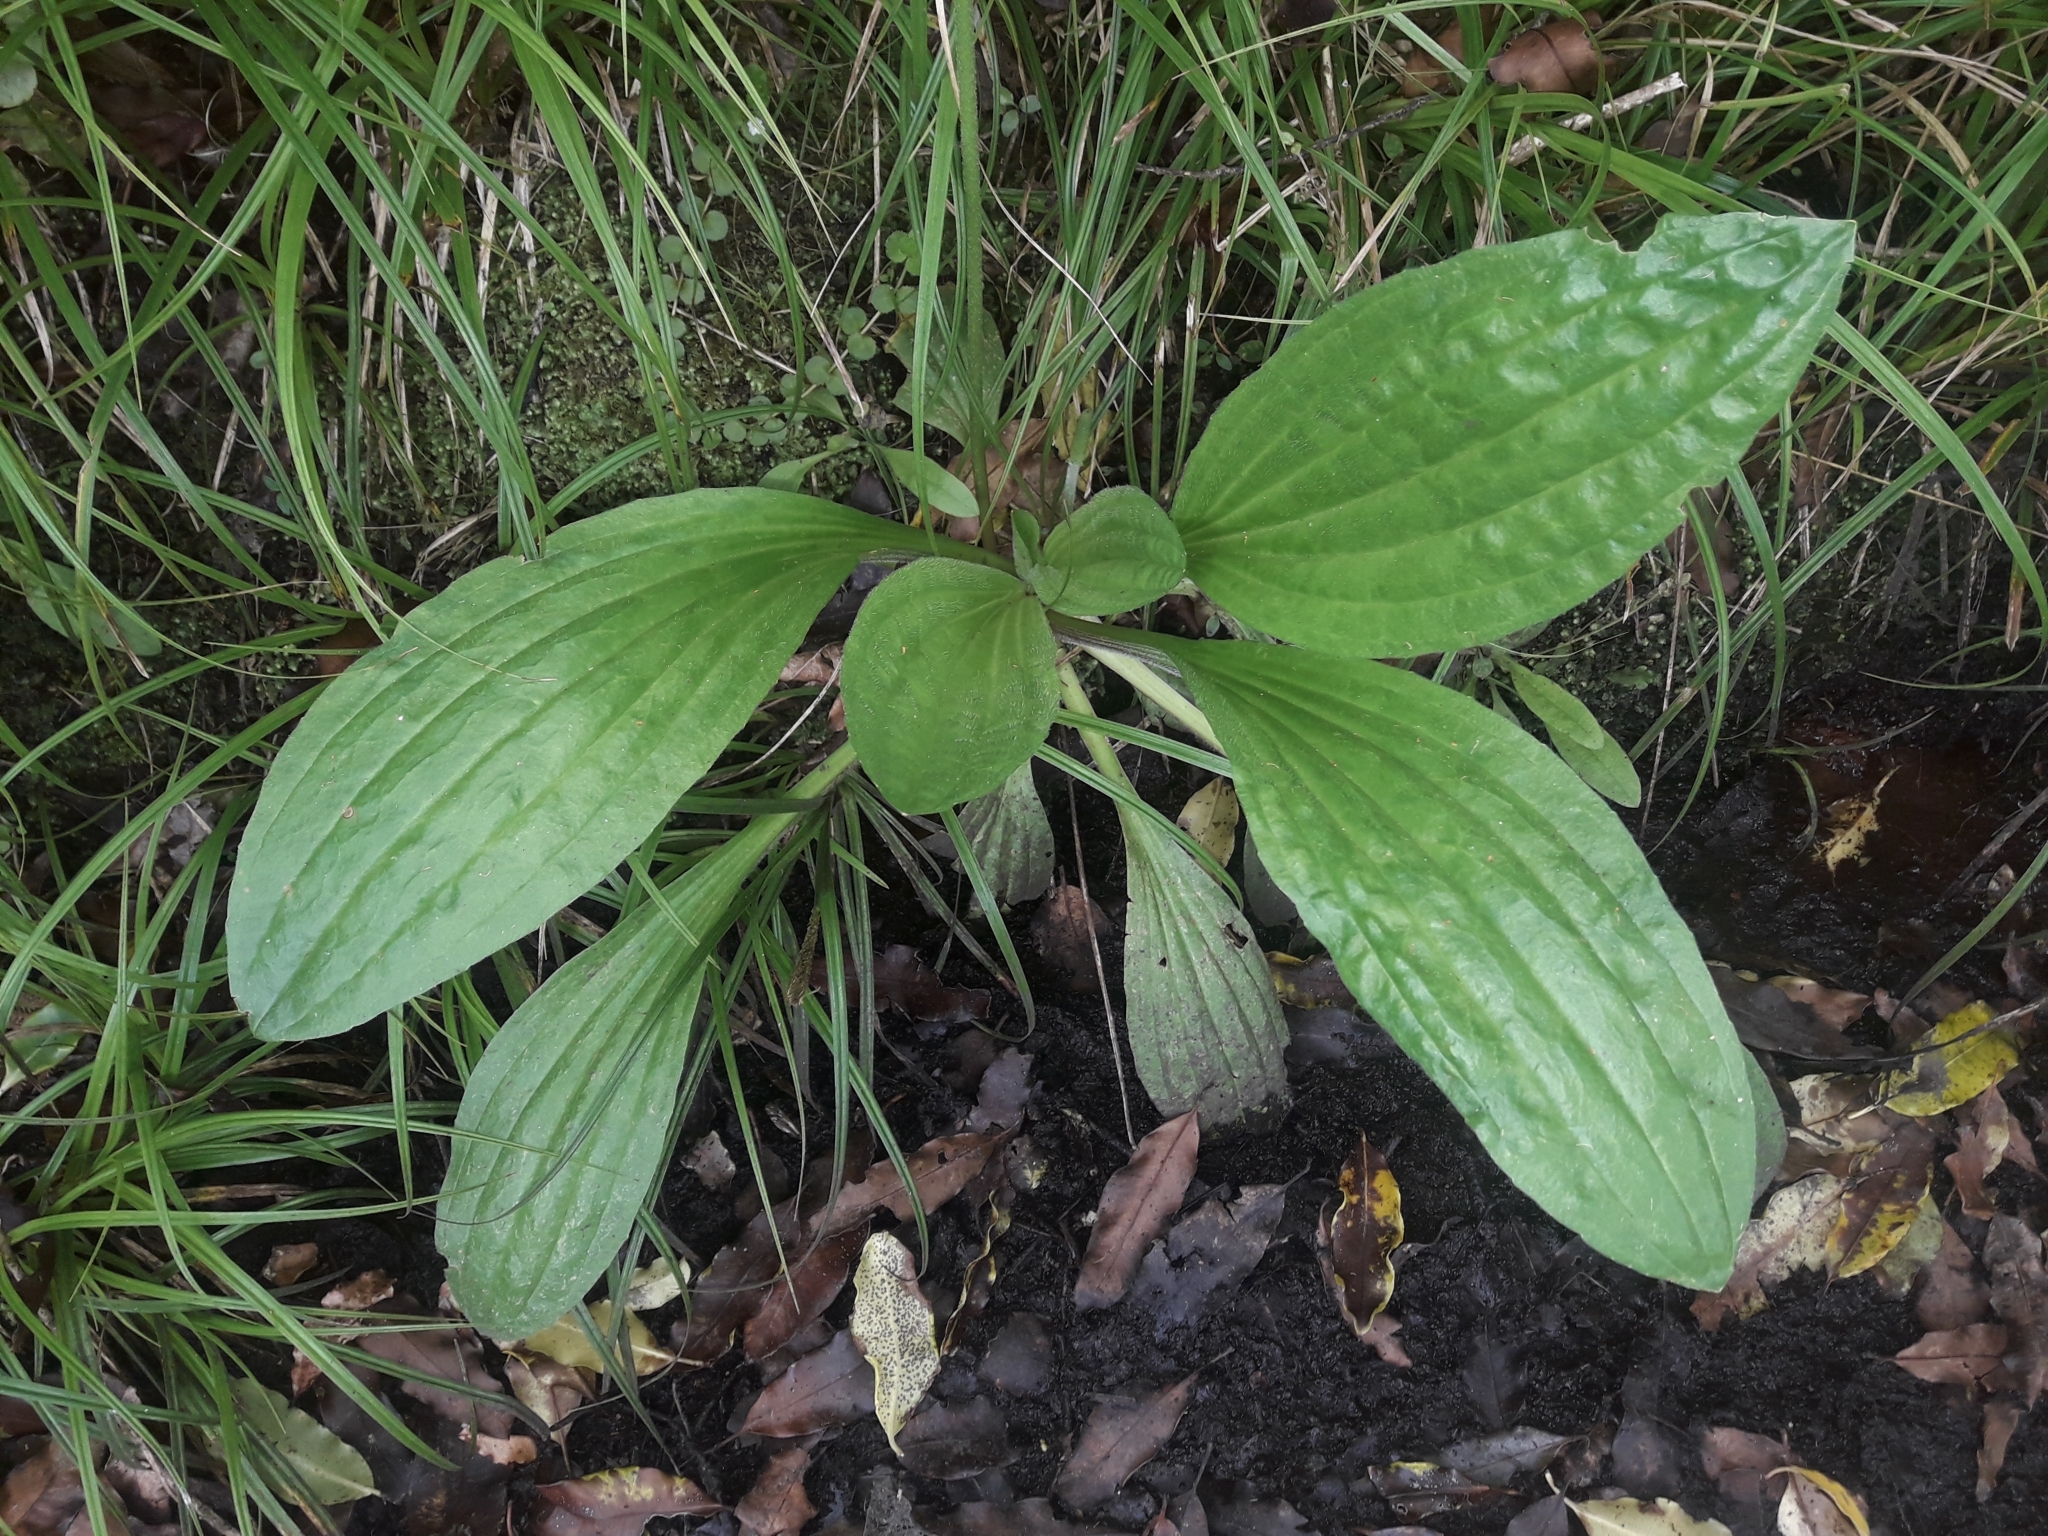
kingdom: Plantae
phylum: Tracheophyta
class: Magnoliopsida
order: Lamiales
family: Plantaginaceae
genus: Plantago
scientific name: Plantago australis
